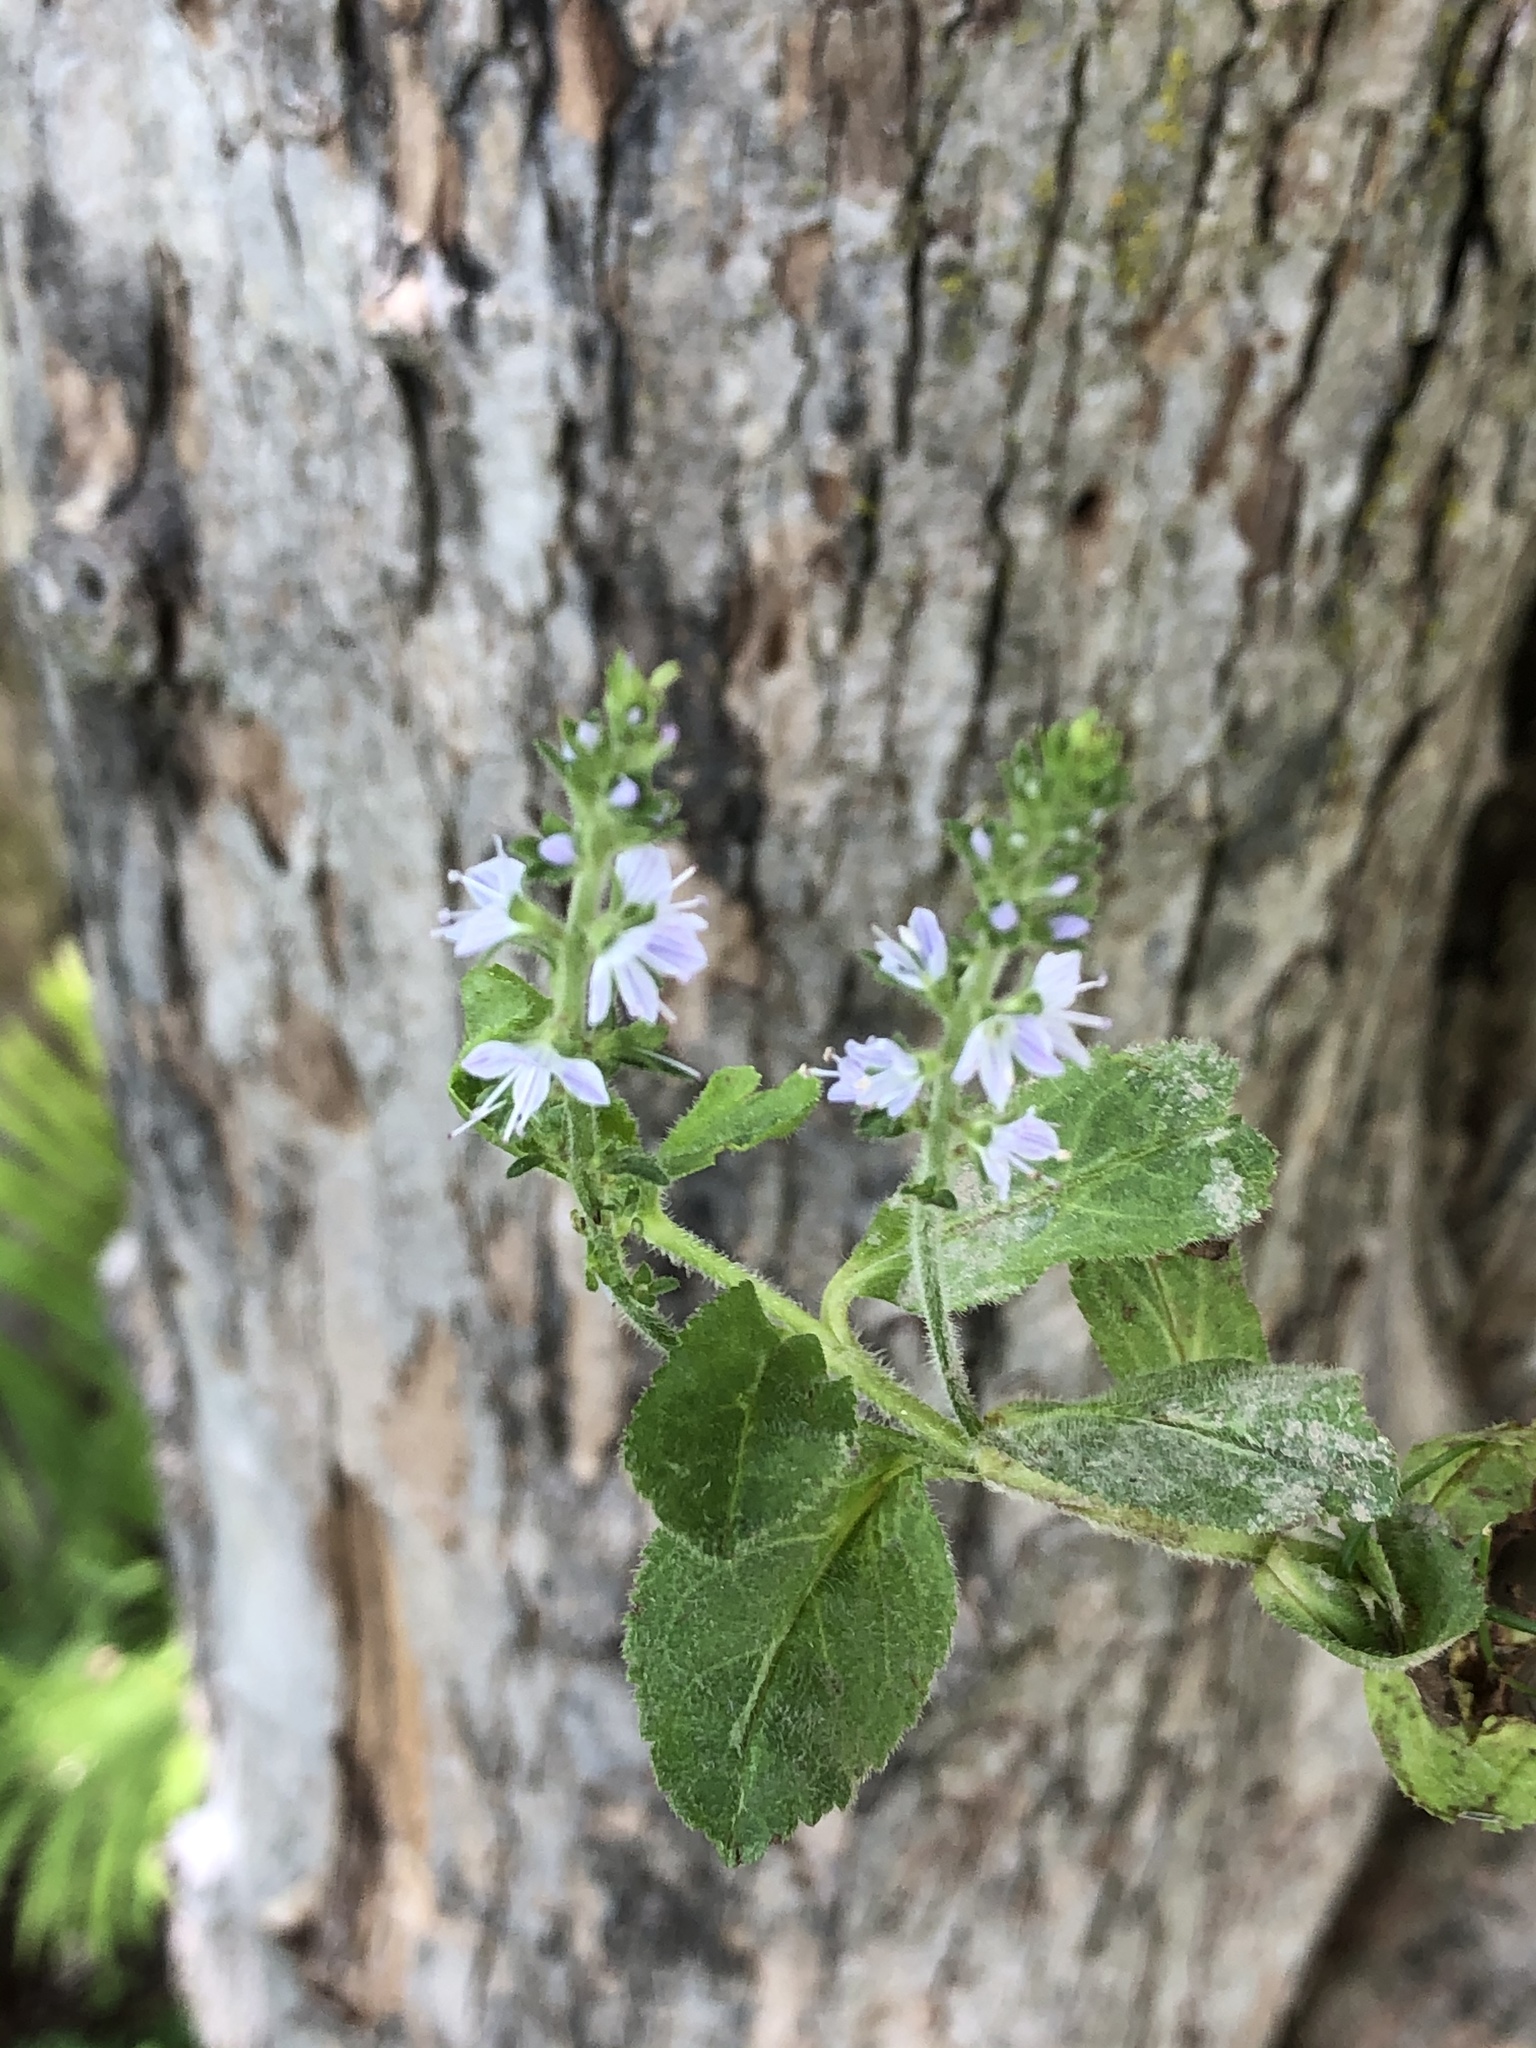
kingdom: Plantae
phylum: Tracheophyta
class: Magnoliopsida
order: Lamiales
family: Plantaginaceae
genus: Veronica
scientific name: Veronica officinalis
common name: Common speedwell
